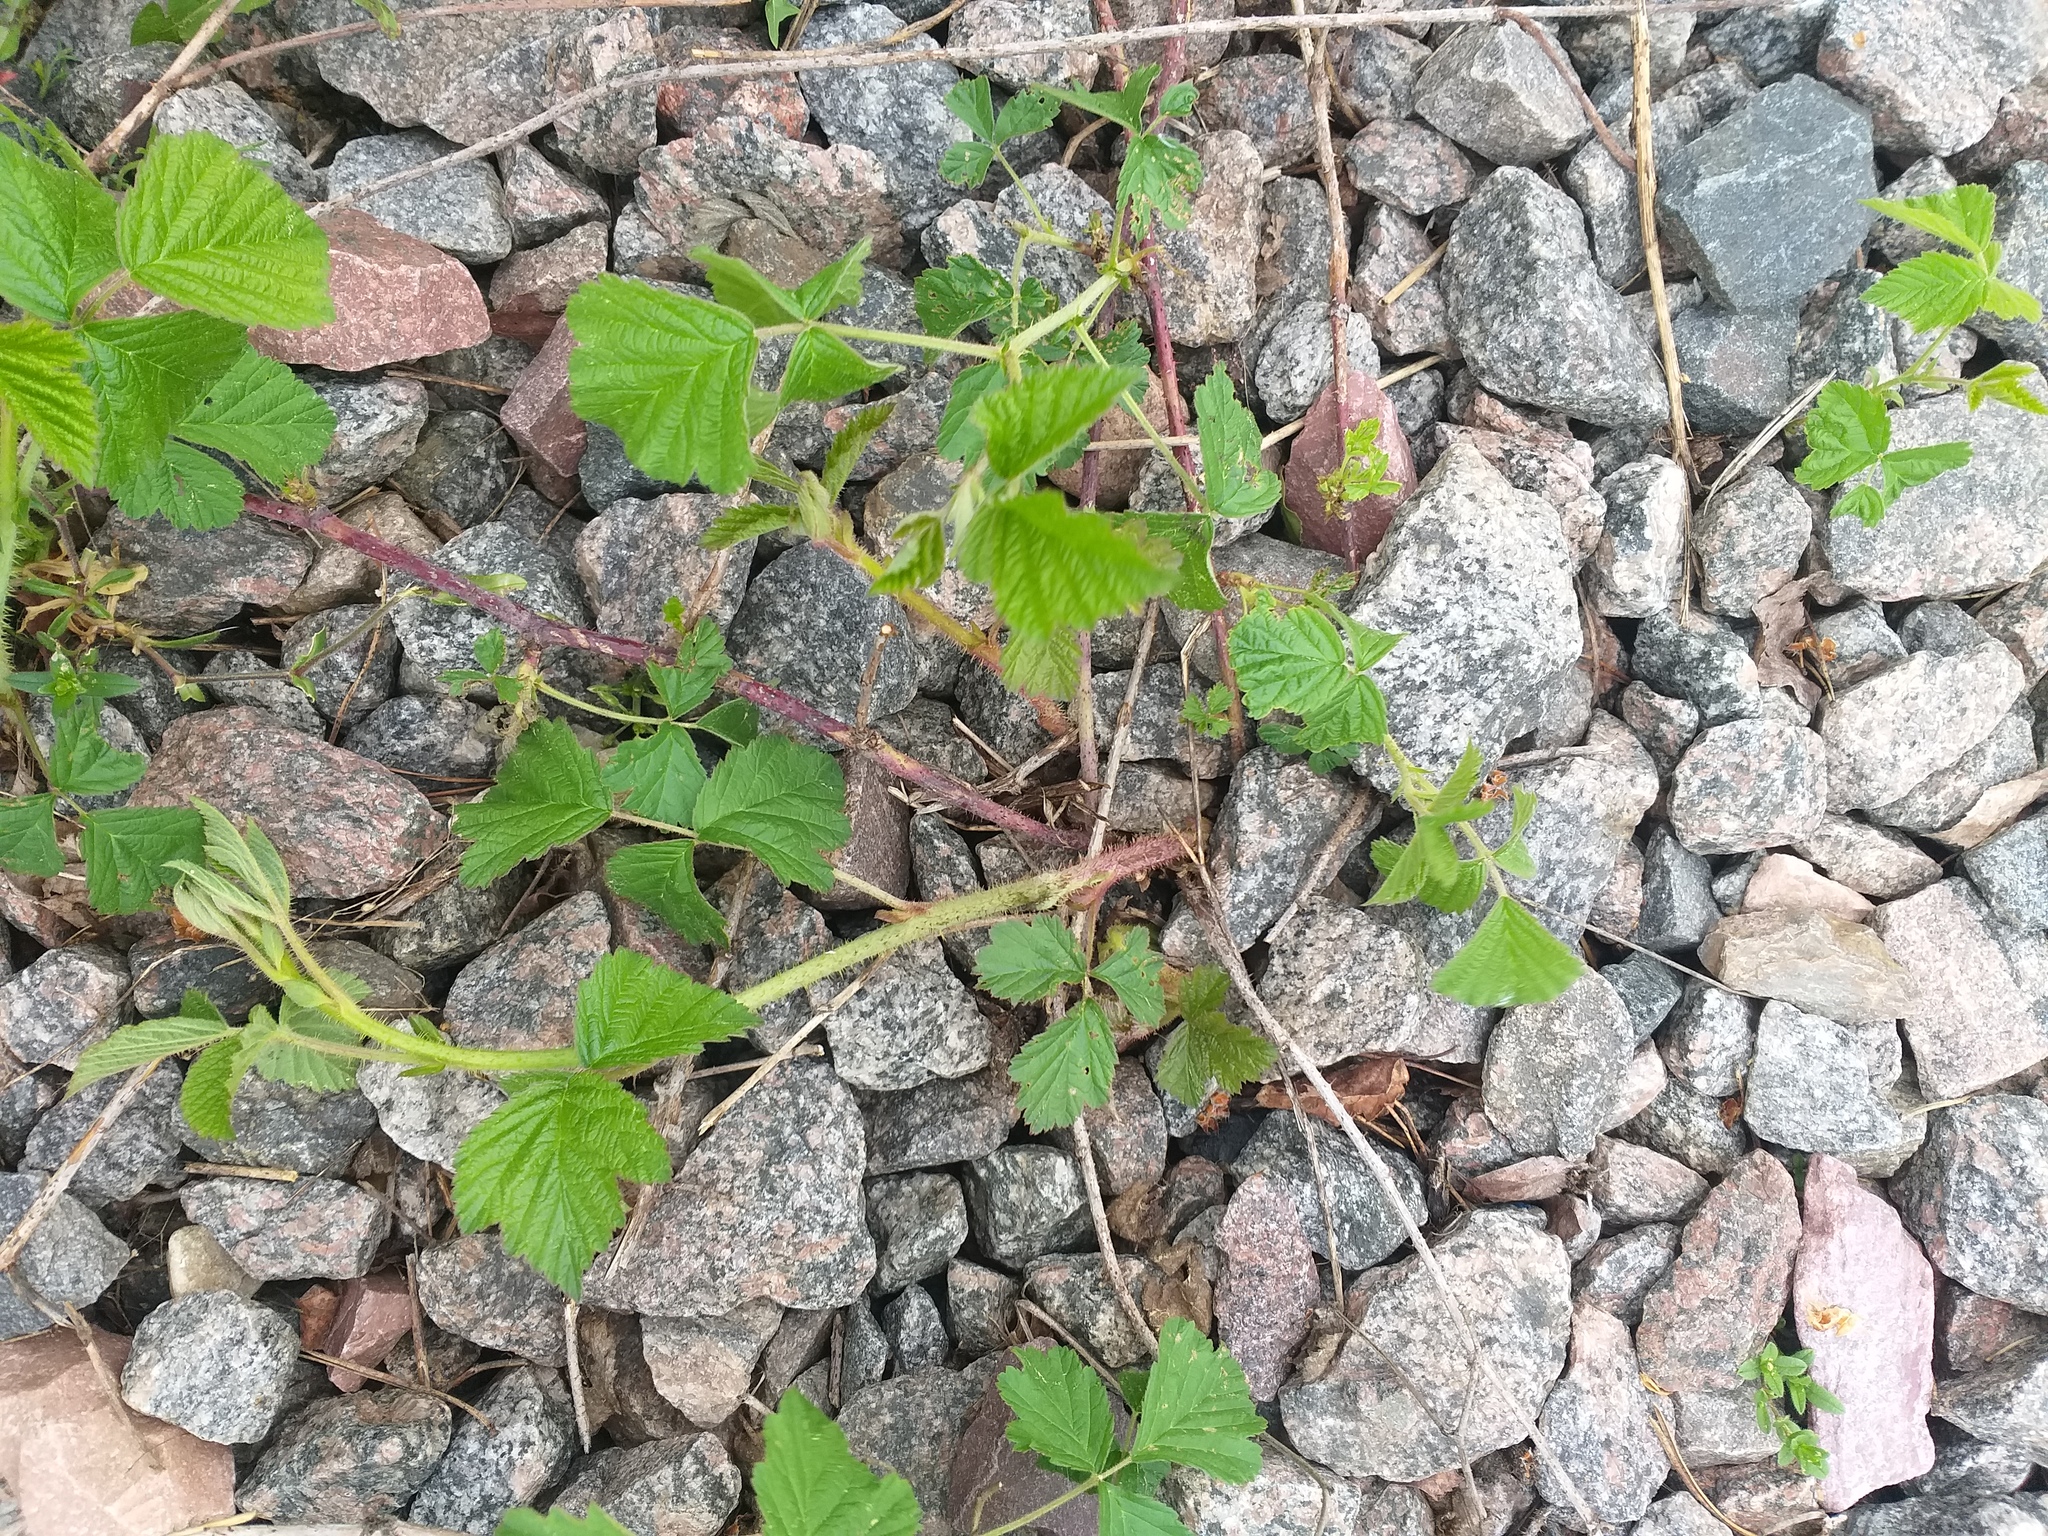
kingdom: Plantae
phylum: Tracheophyta
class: Magnoliopsida
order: Rosales
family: Rosaceae
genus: Rubus
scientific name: Rubus caesius
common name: Dewberry
